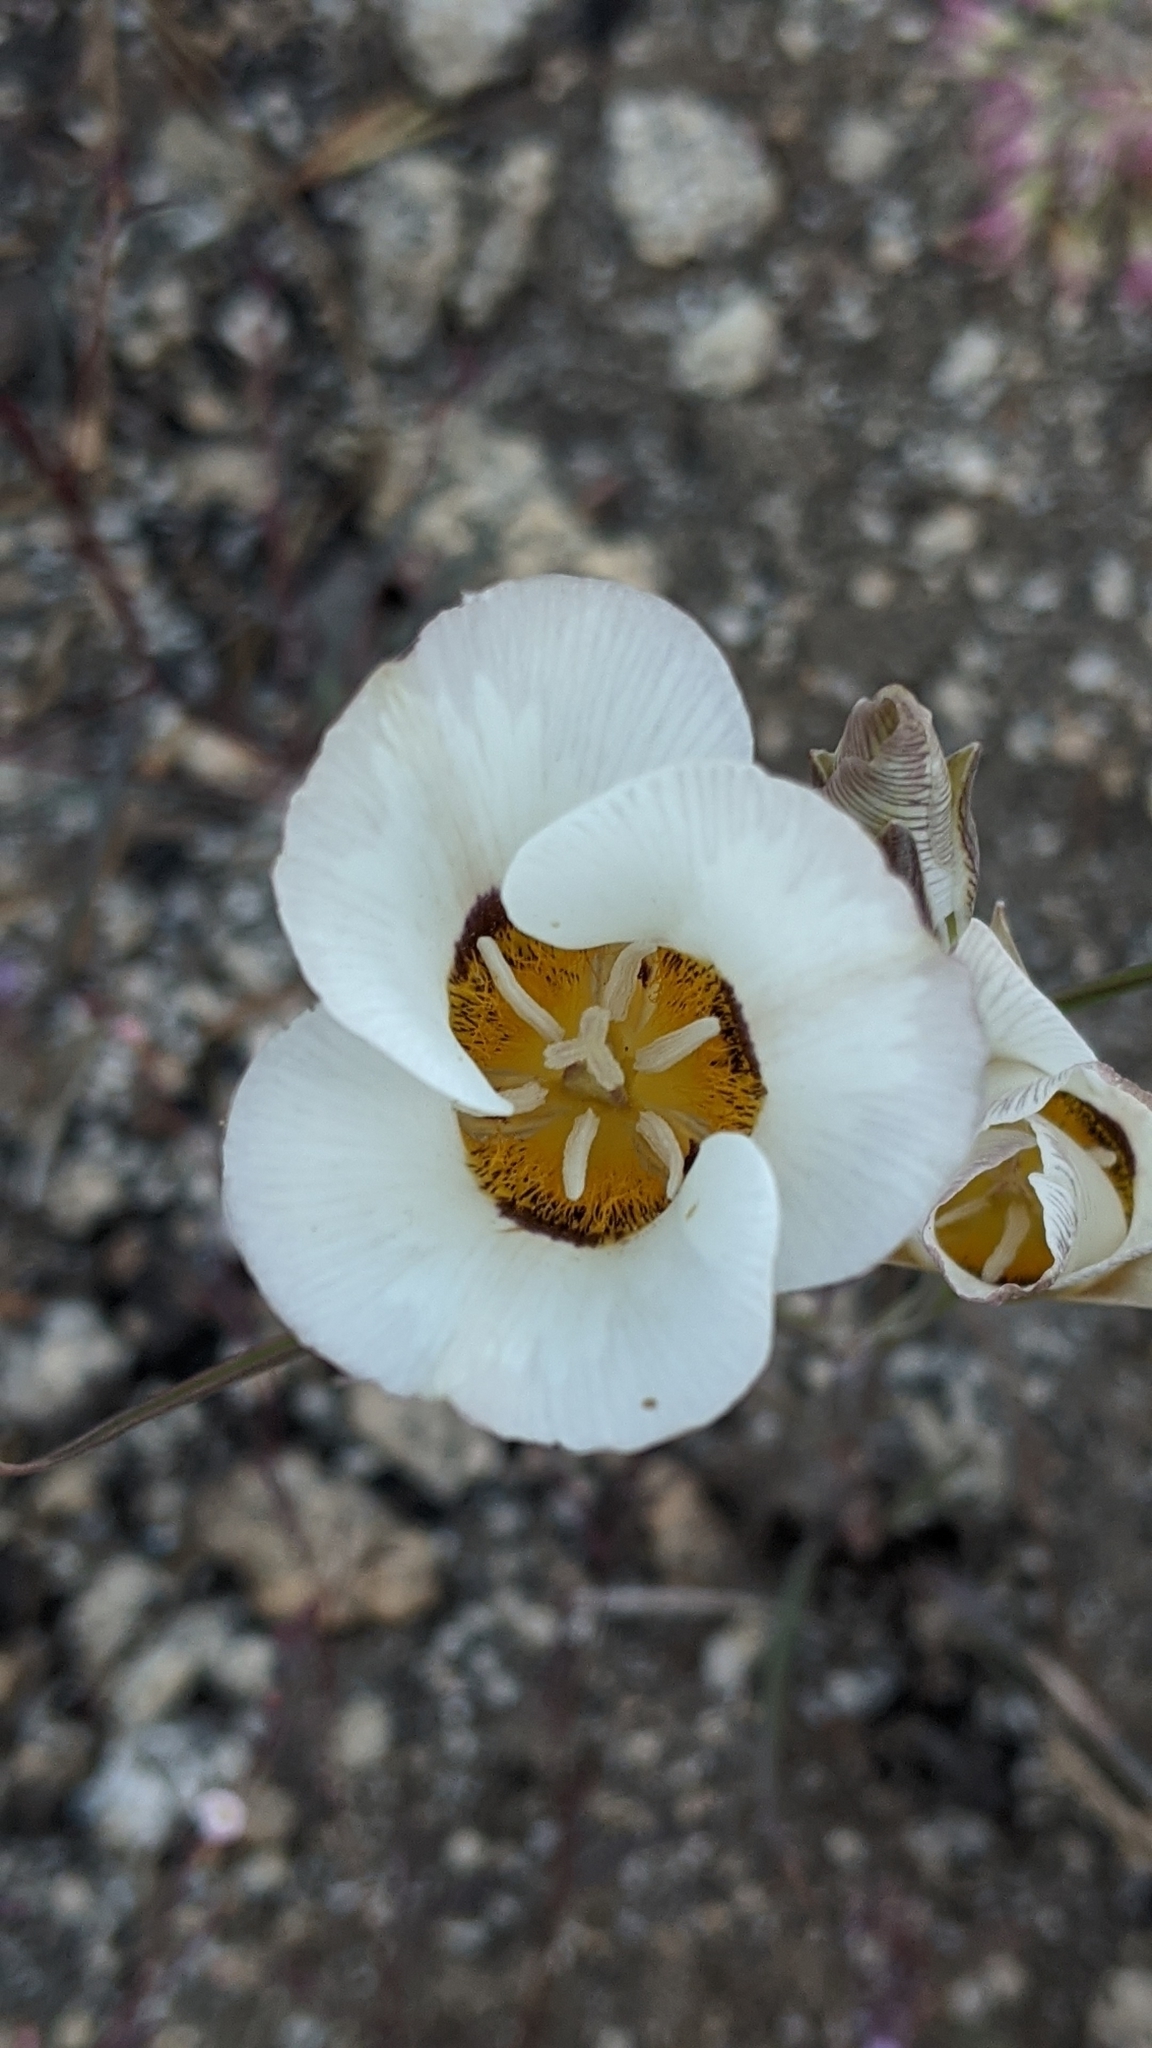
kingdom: Plantae
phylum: Tracheophyta
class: Liliopsida
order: Liliales
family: Liliaceae
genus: Calochortus
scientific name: Calochortus leichtlinii
